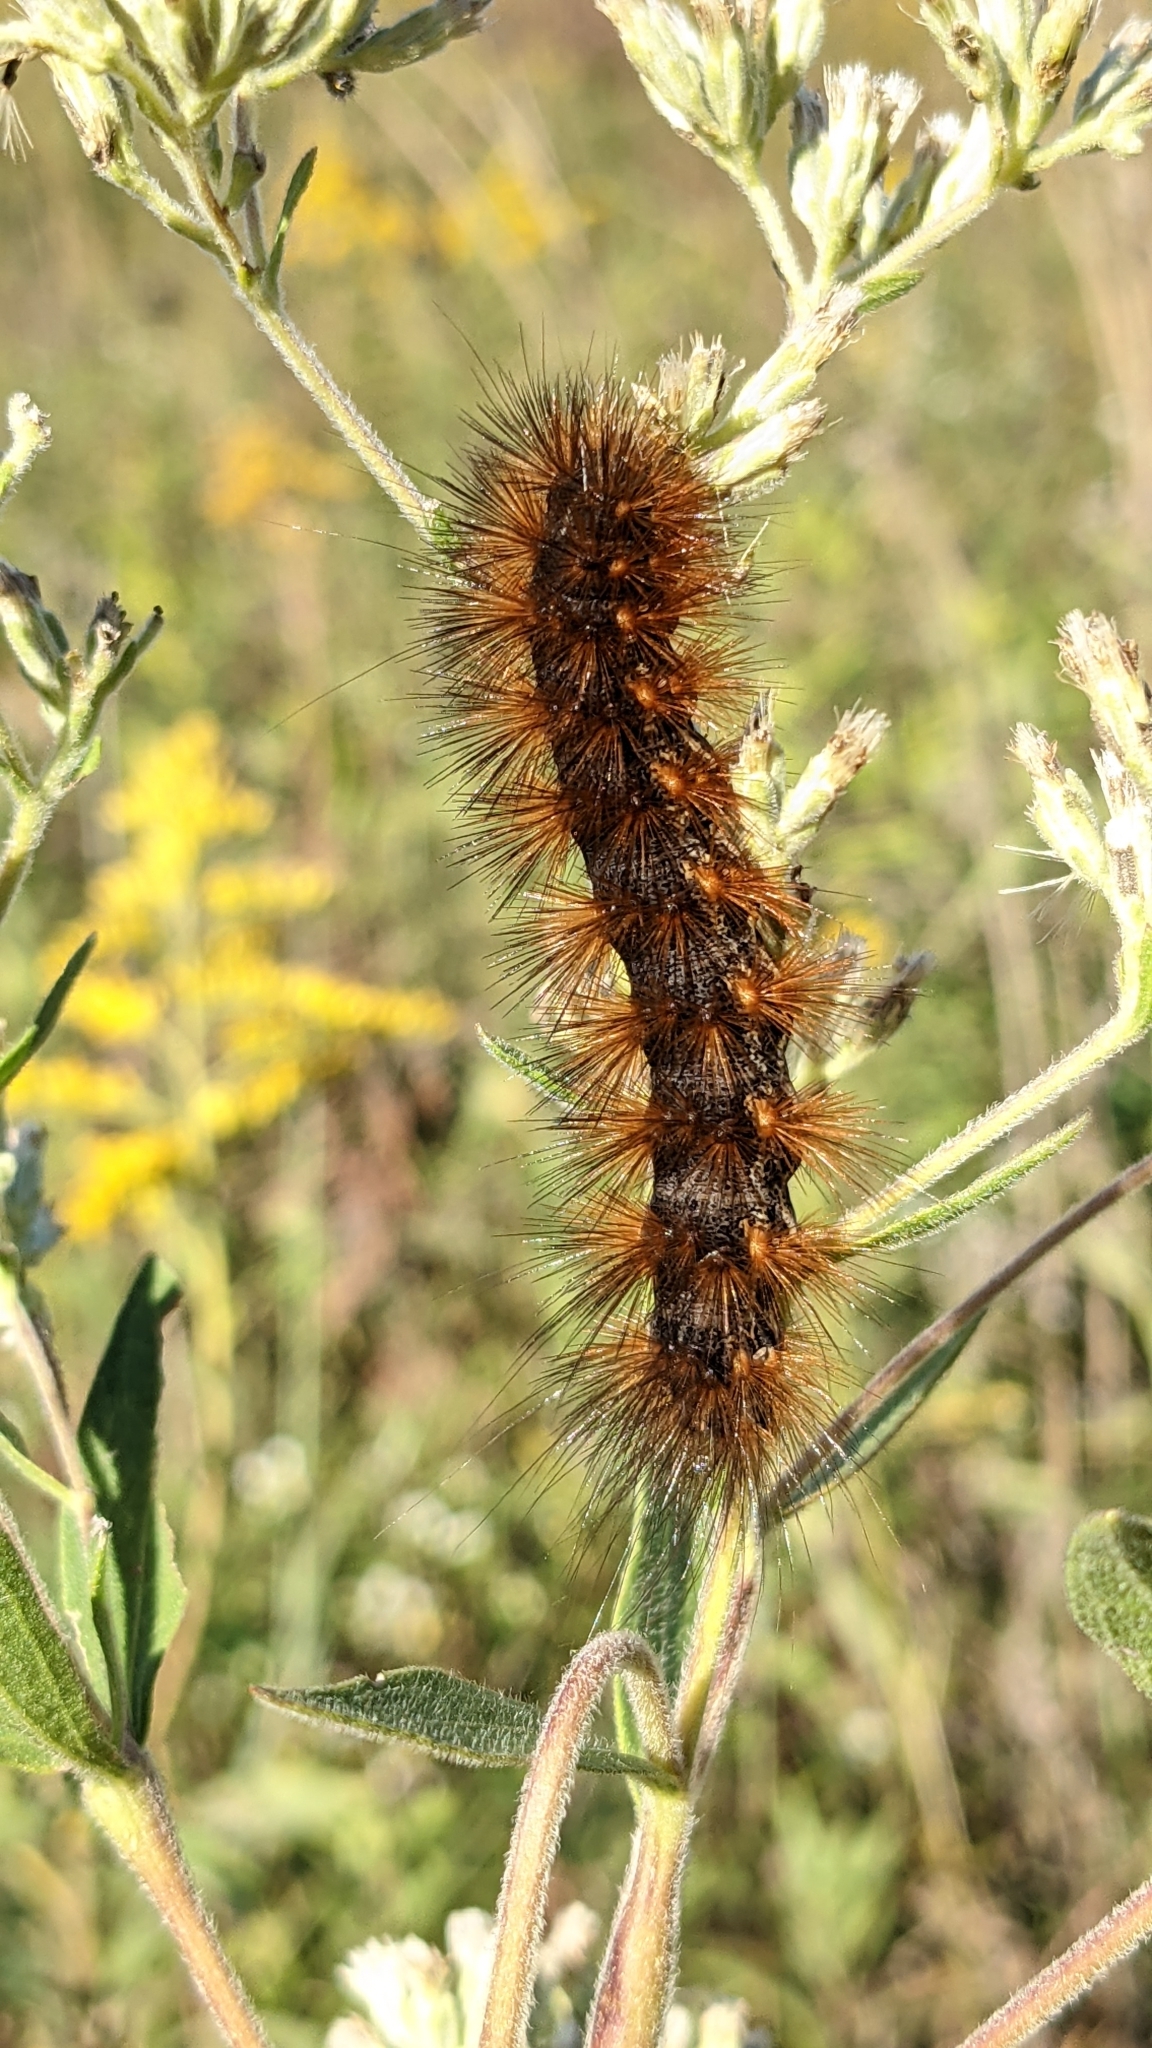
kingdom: Animalia
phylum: Arthropoda
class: Insecta
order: Lepidoptera
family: Erebidae
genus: Estigmene
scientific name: Estigmene acrea
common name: Salt marsh moth
